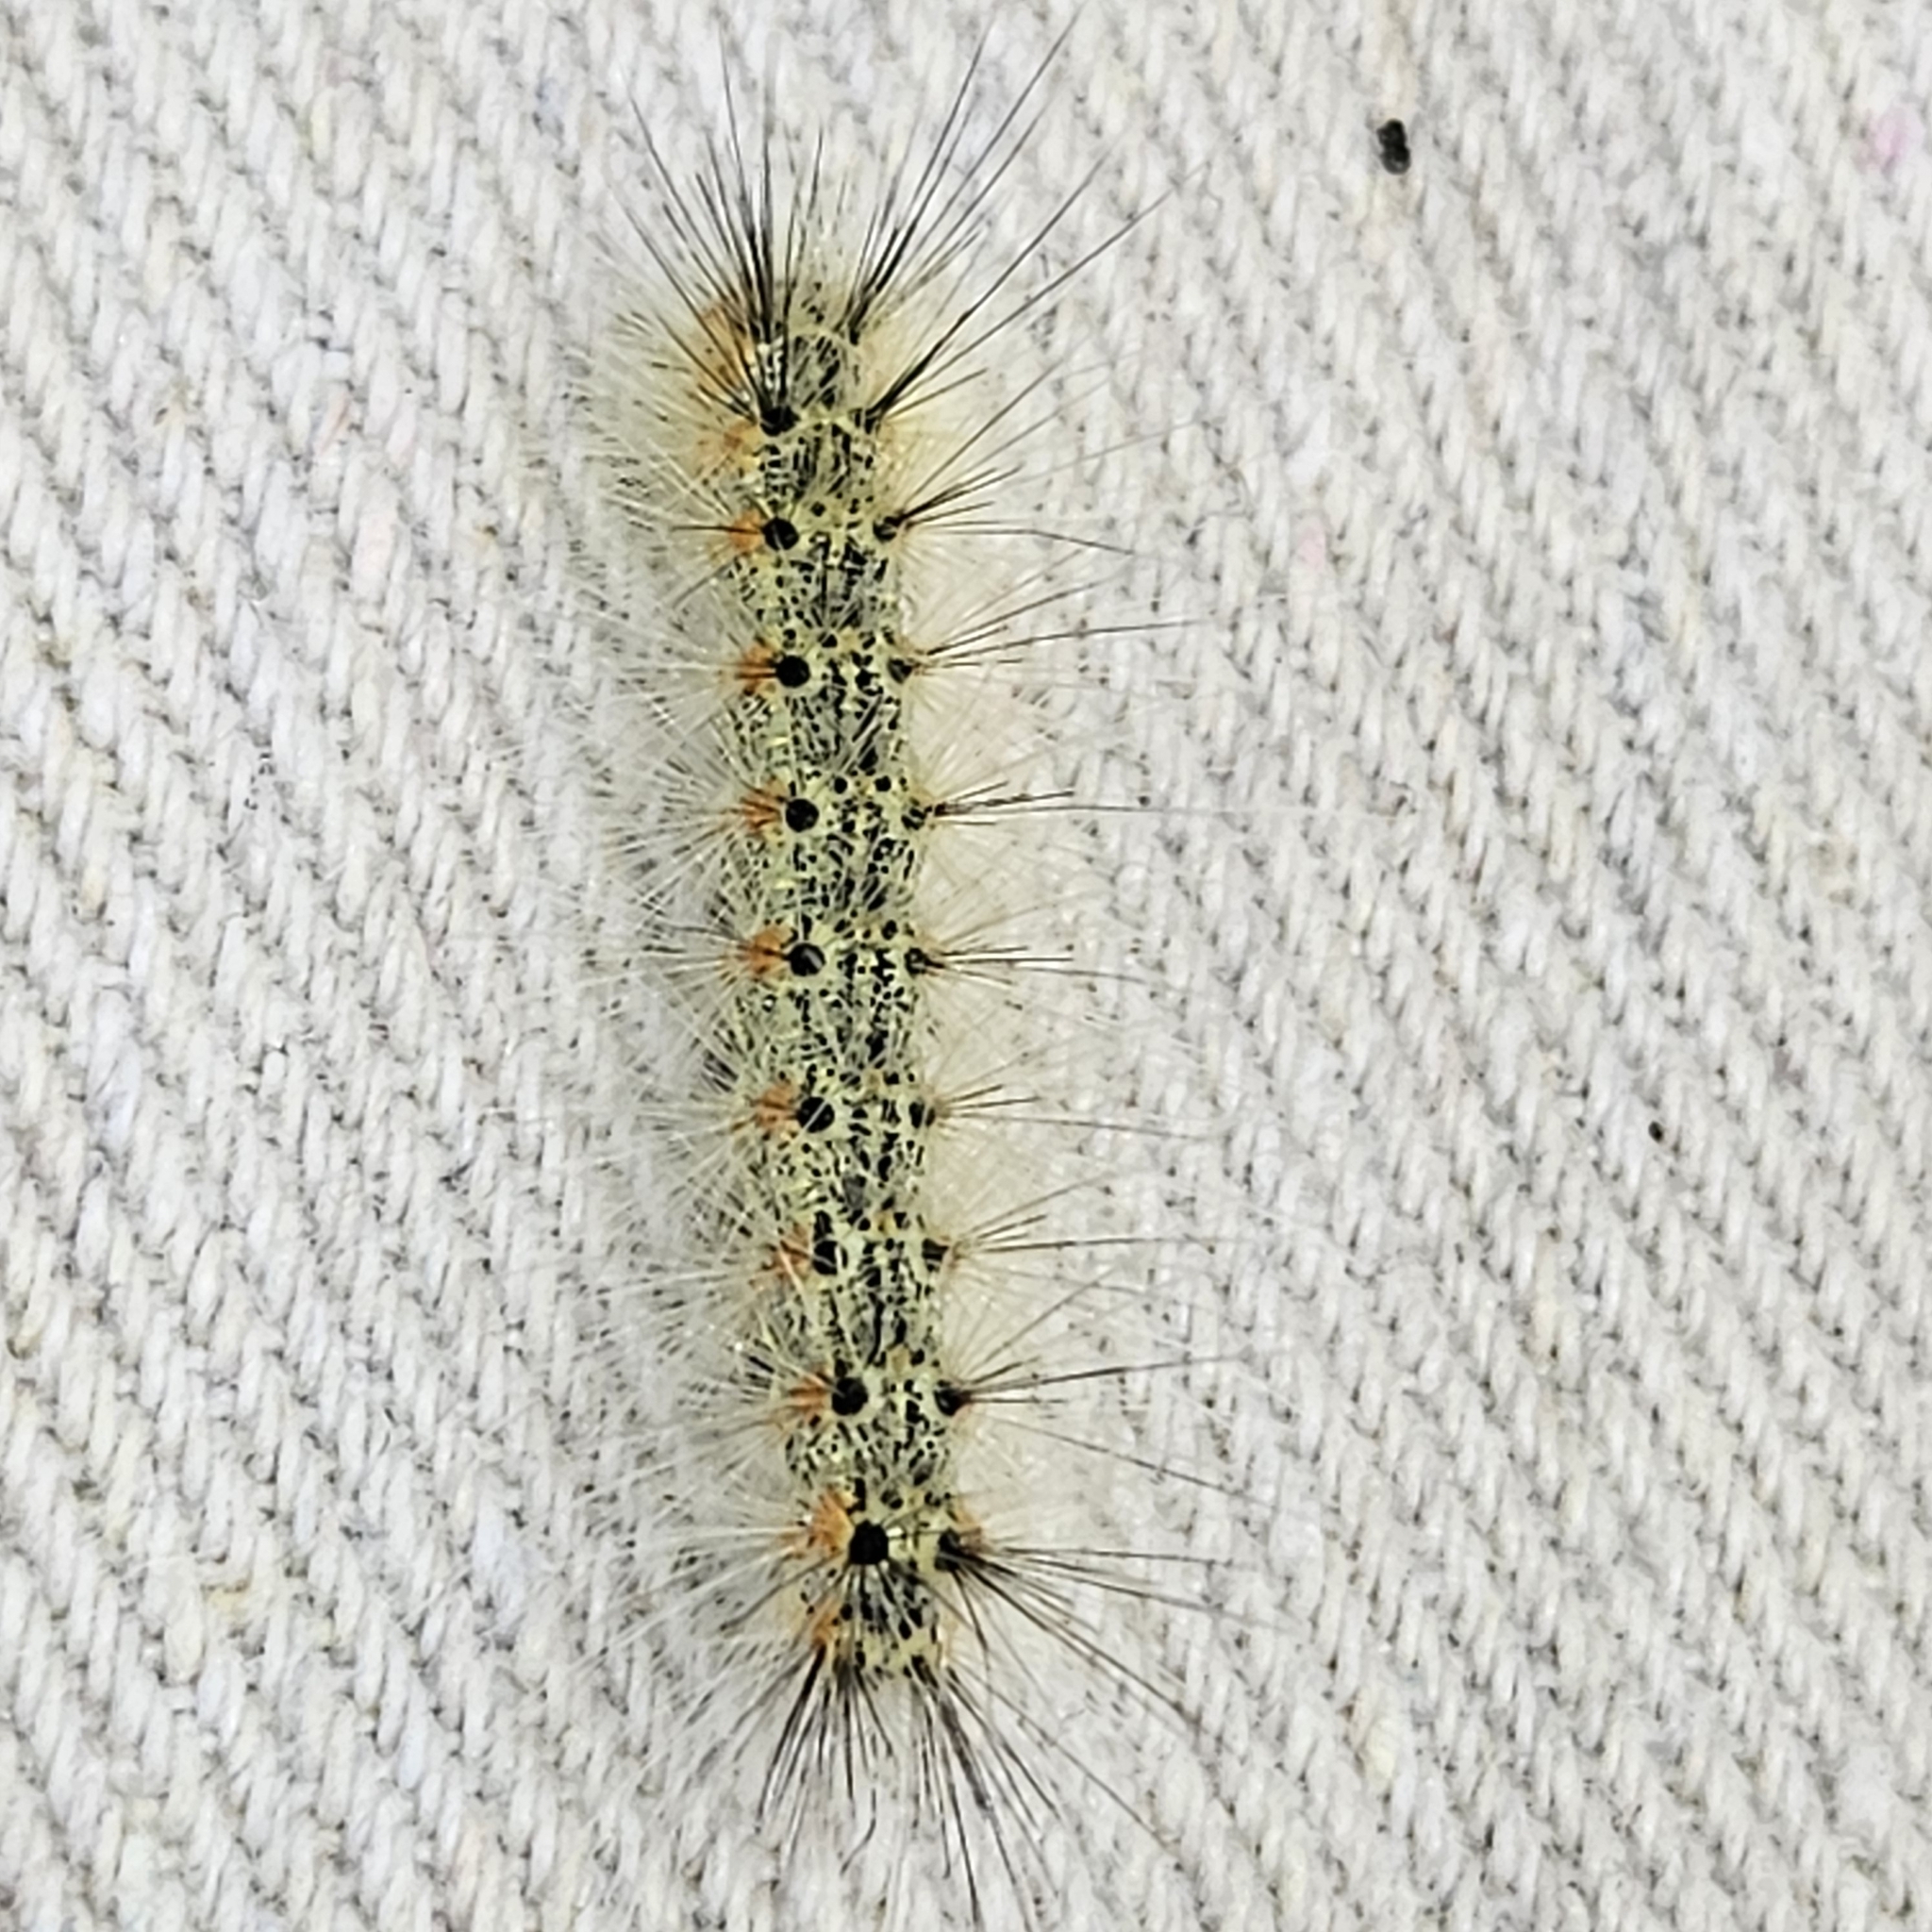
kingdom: Animalia
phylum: Arthropoda
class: Insecta
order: Lepidoptera
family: Erebidae
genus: Hyphantria
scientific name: Hyphantria cunea
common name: American white moth
